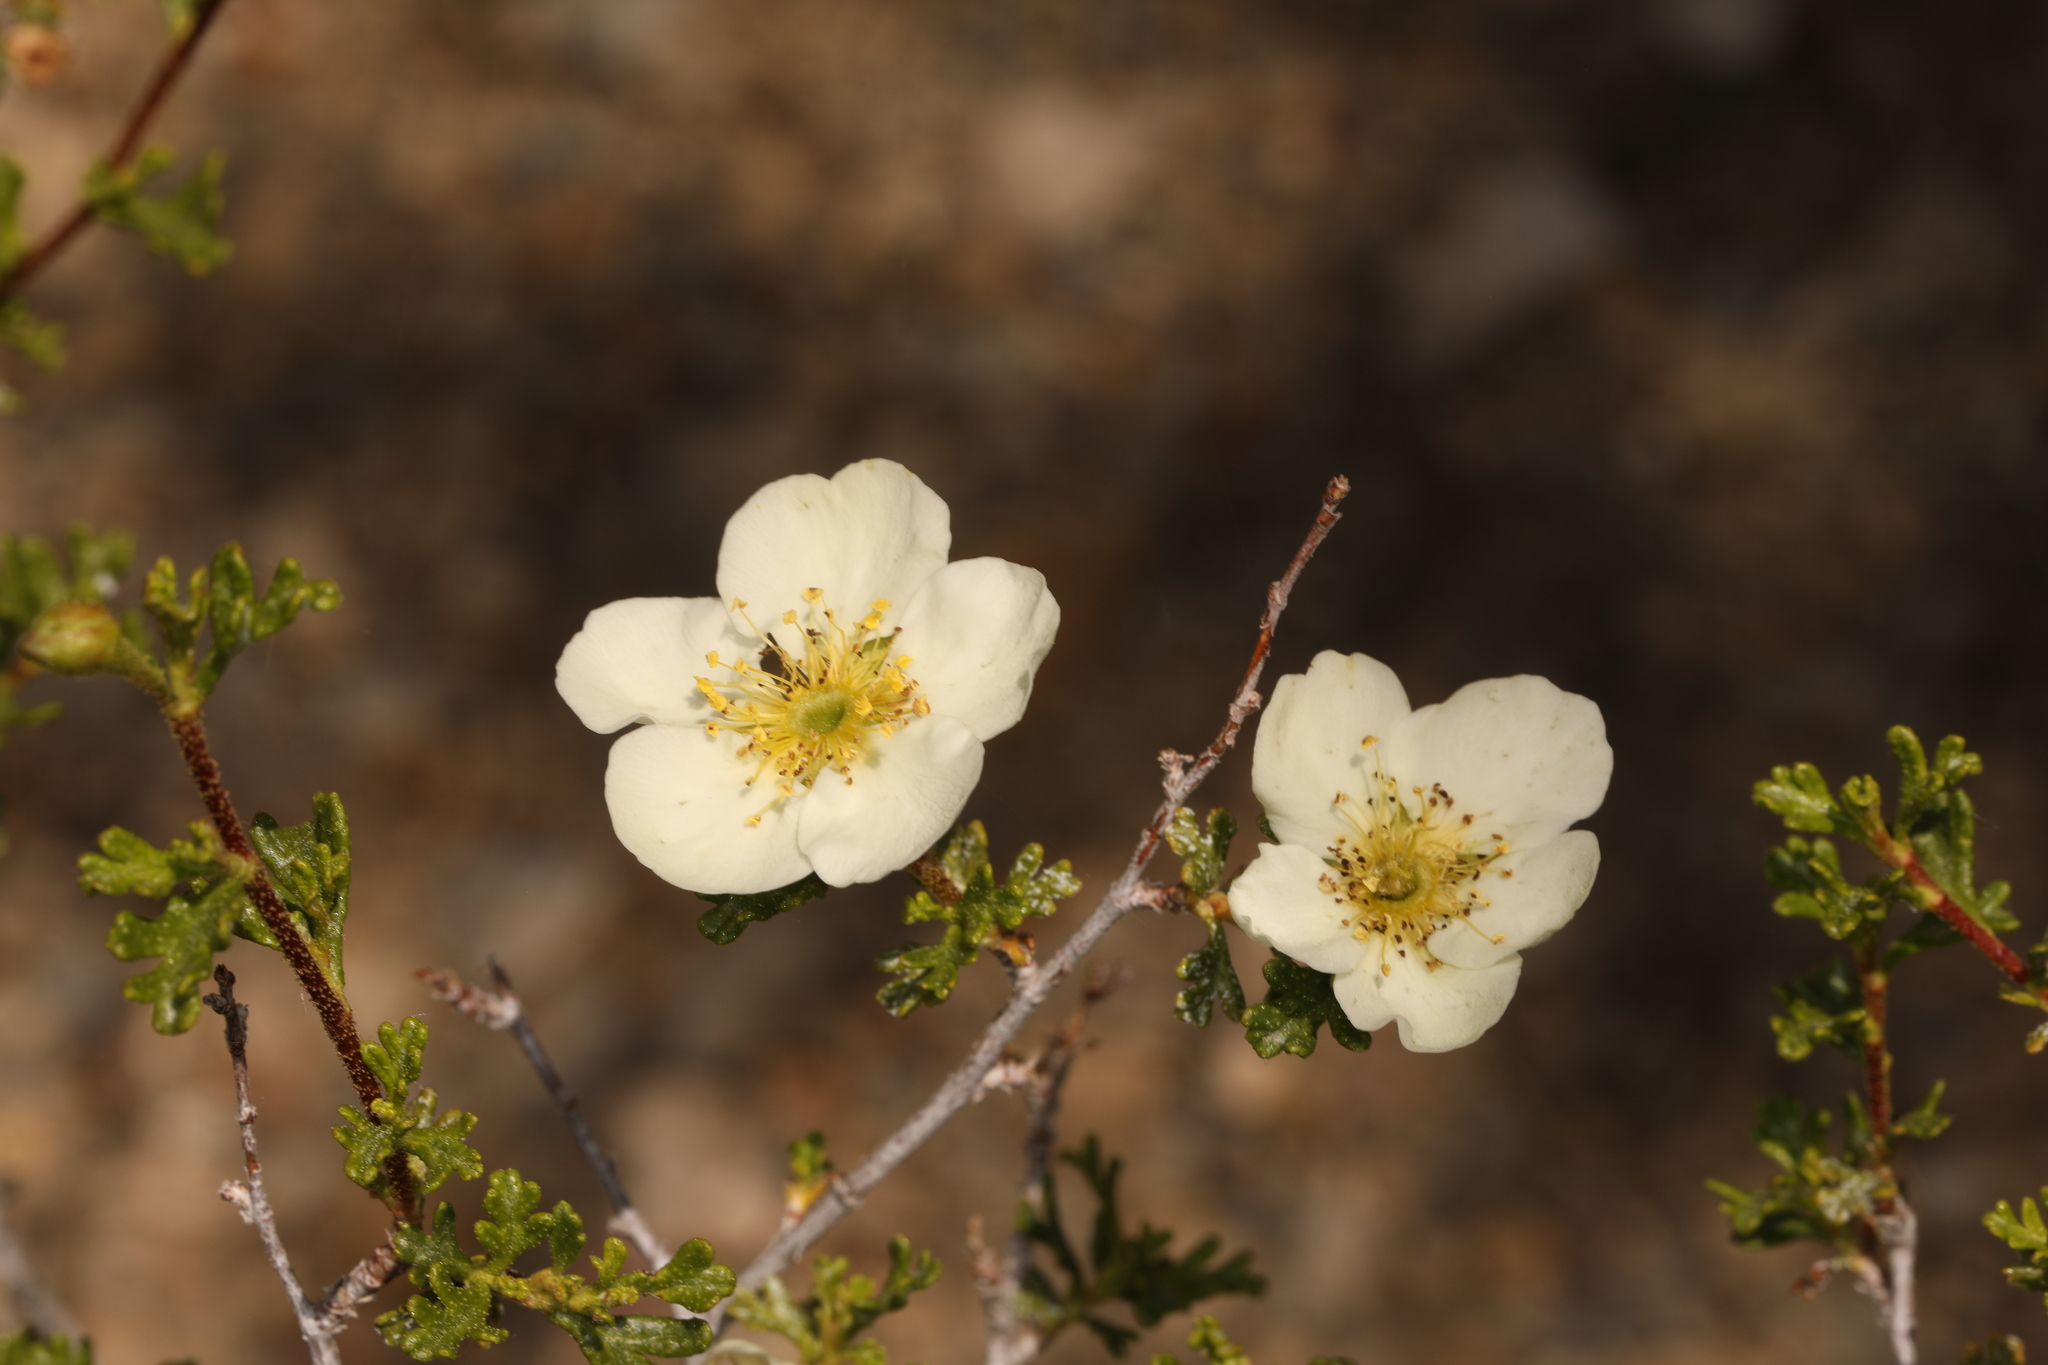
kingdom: Plantae
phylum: Tracheophyta
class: Magnoliopsida
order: Rosales
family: Rosaceae
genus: Purshia
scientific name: Purshia stansburiana
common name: Stansbury's cliffrose
